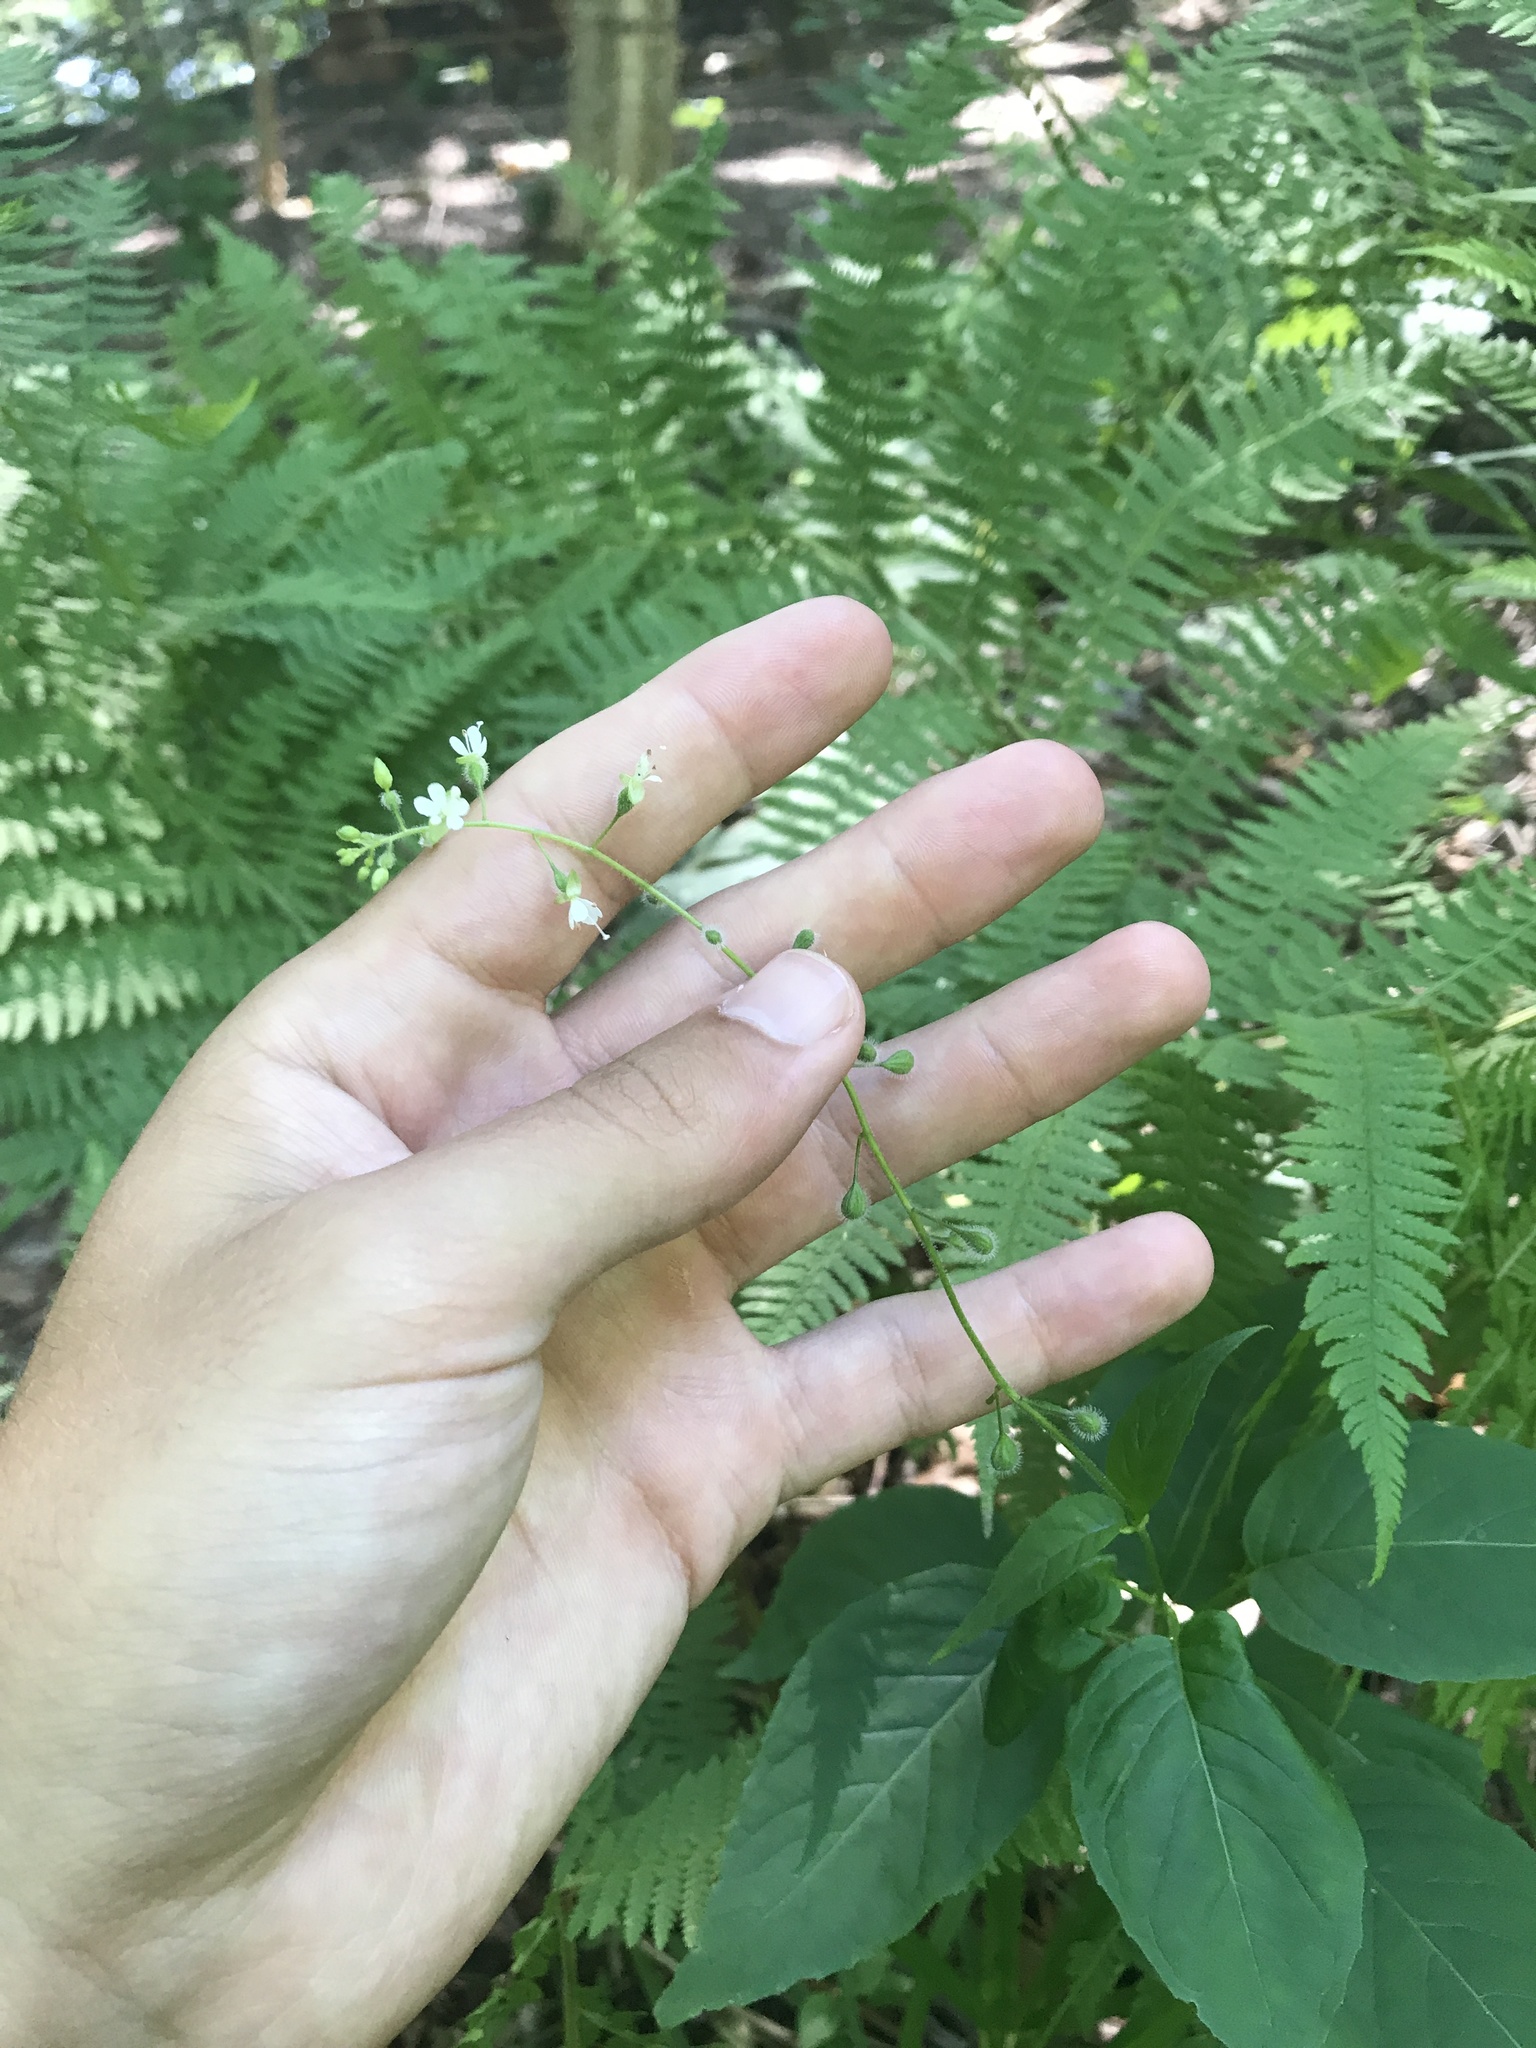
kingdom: Plantae
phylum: Tracheophyta
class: Magnoliopsida
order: Myrtales
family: Onagraceae
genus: Circaea
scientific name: Circaea canadensis
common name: Broad-leaved enchanter's nightshade
